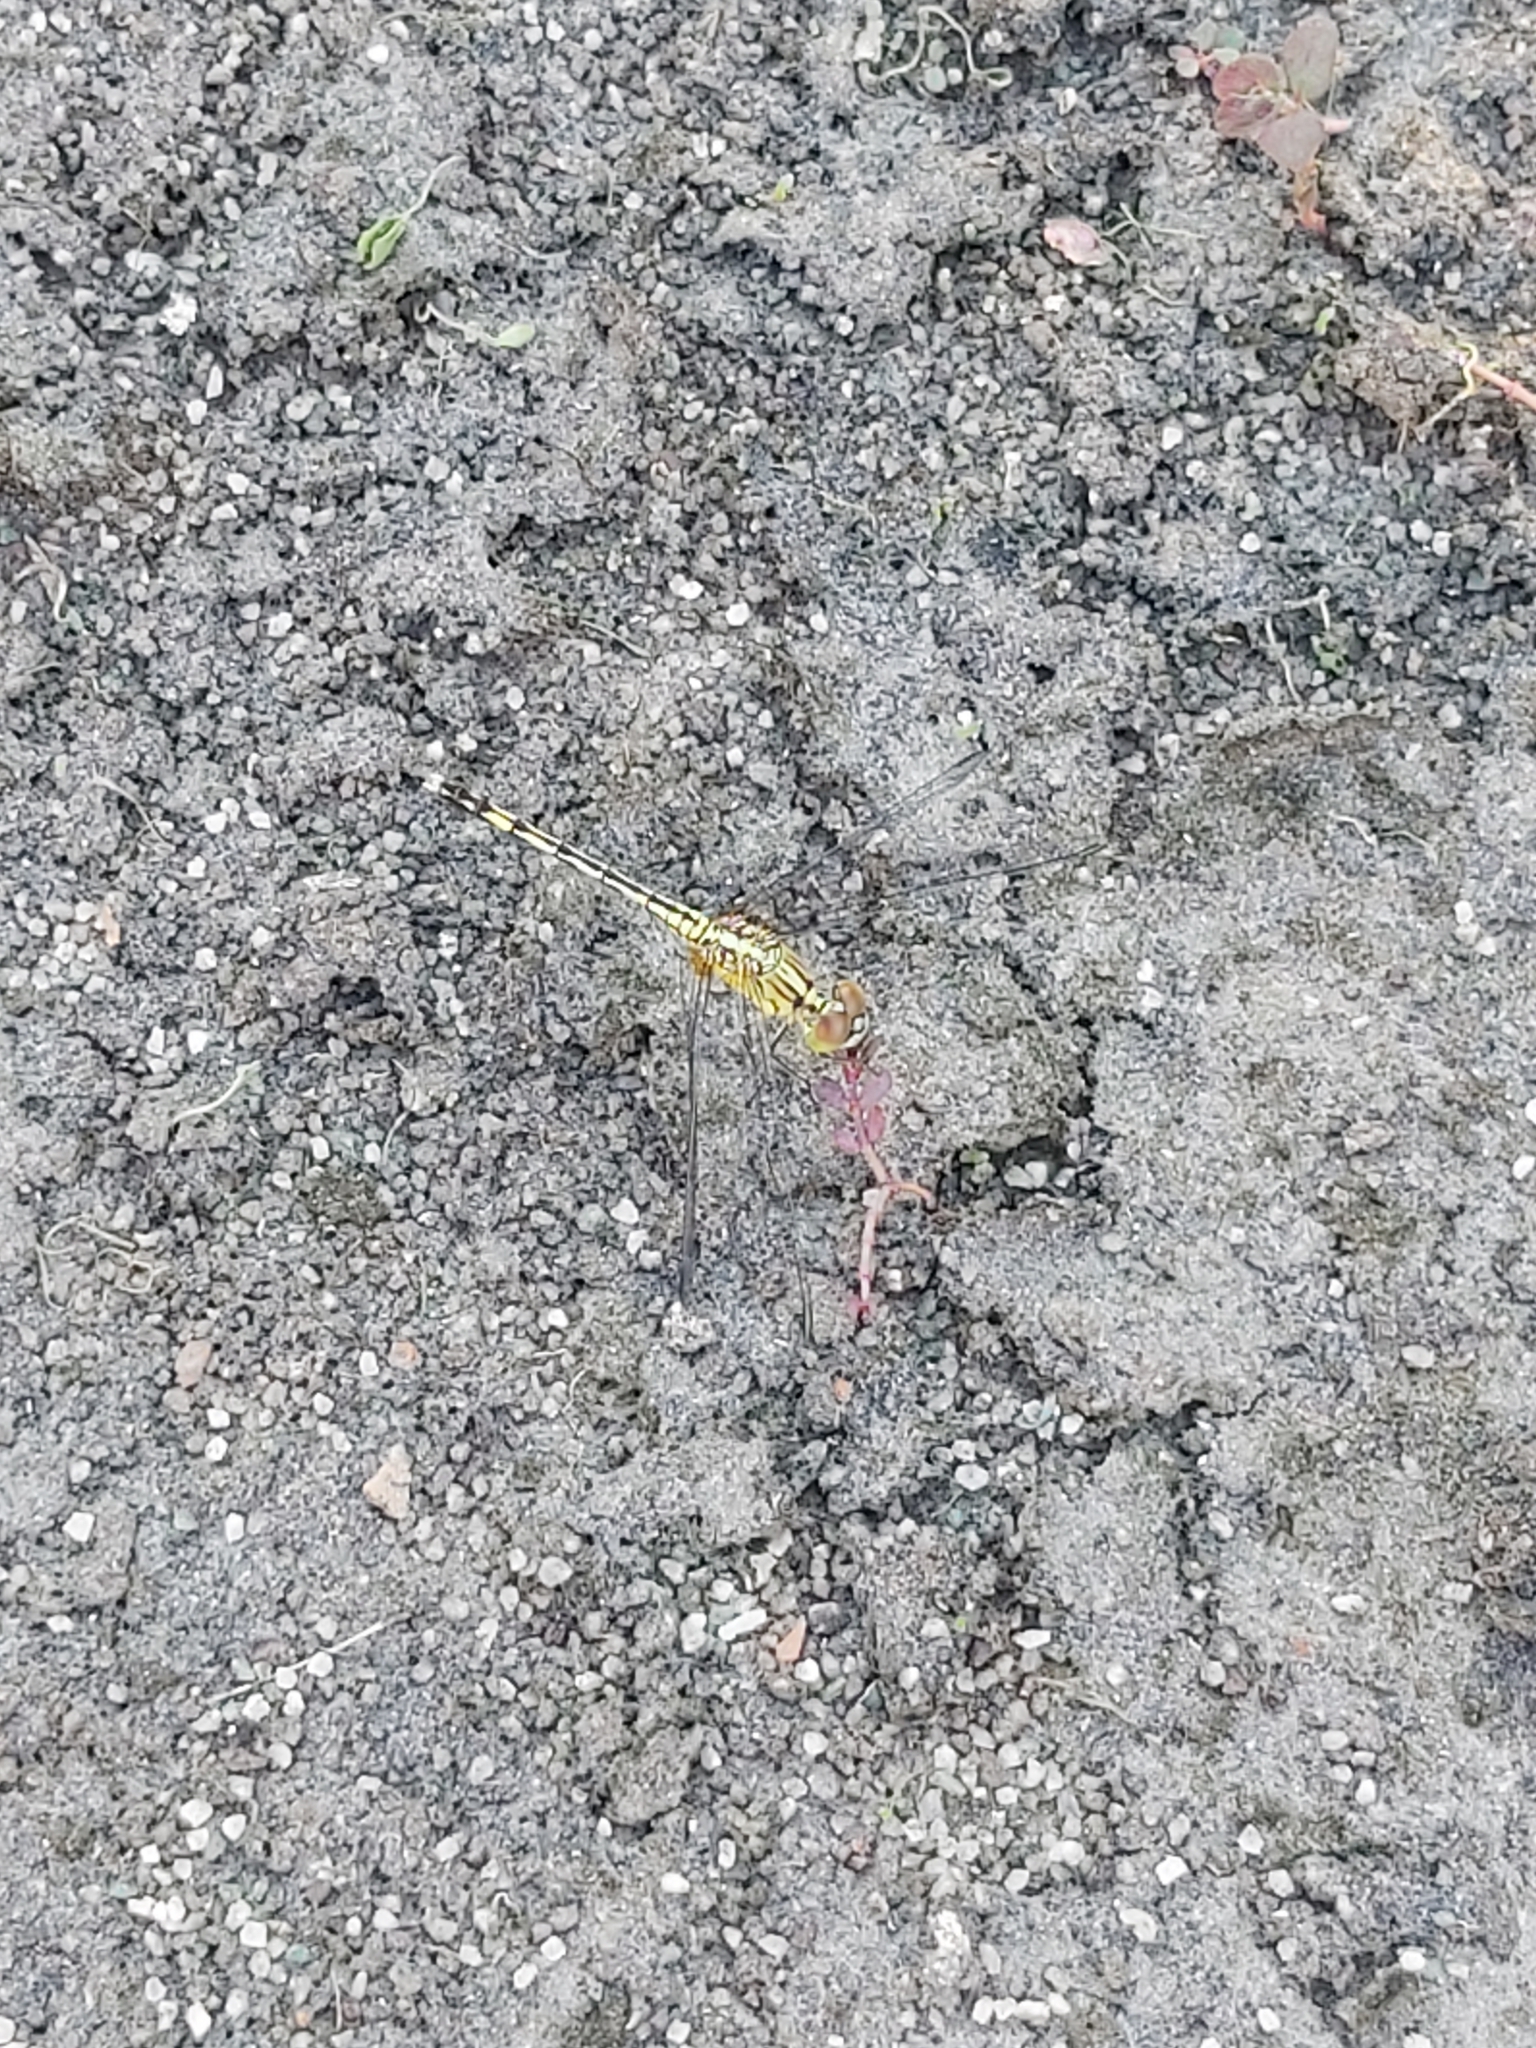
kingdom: Animalia
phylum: Arthropoda
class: Insecta
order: Odonata
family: Libellulidae
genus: Diplacodes
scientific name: Diplacodes trivialis
